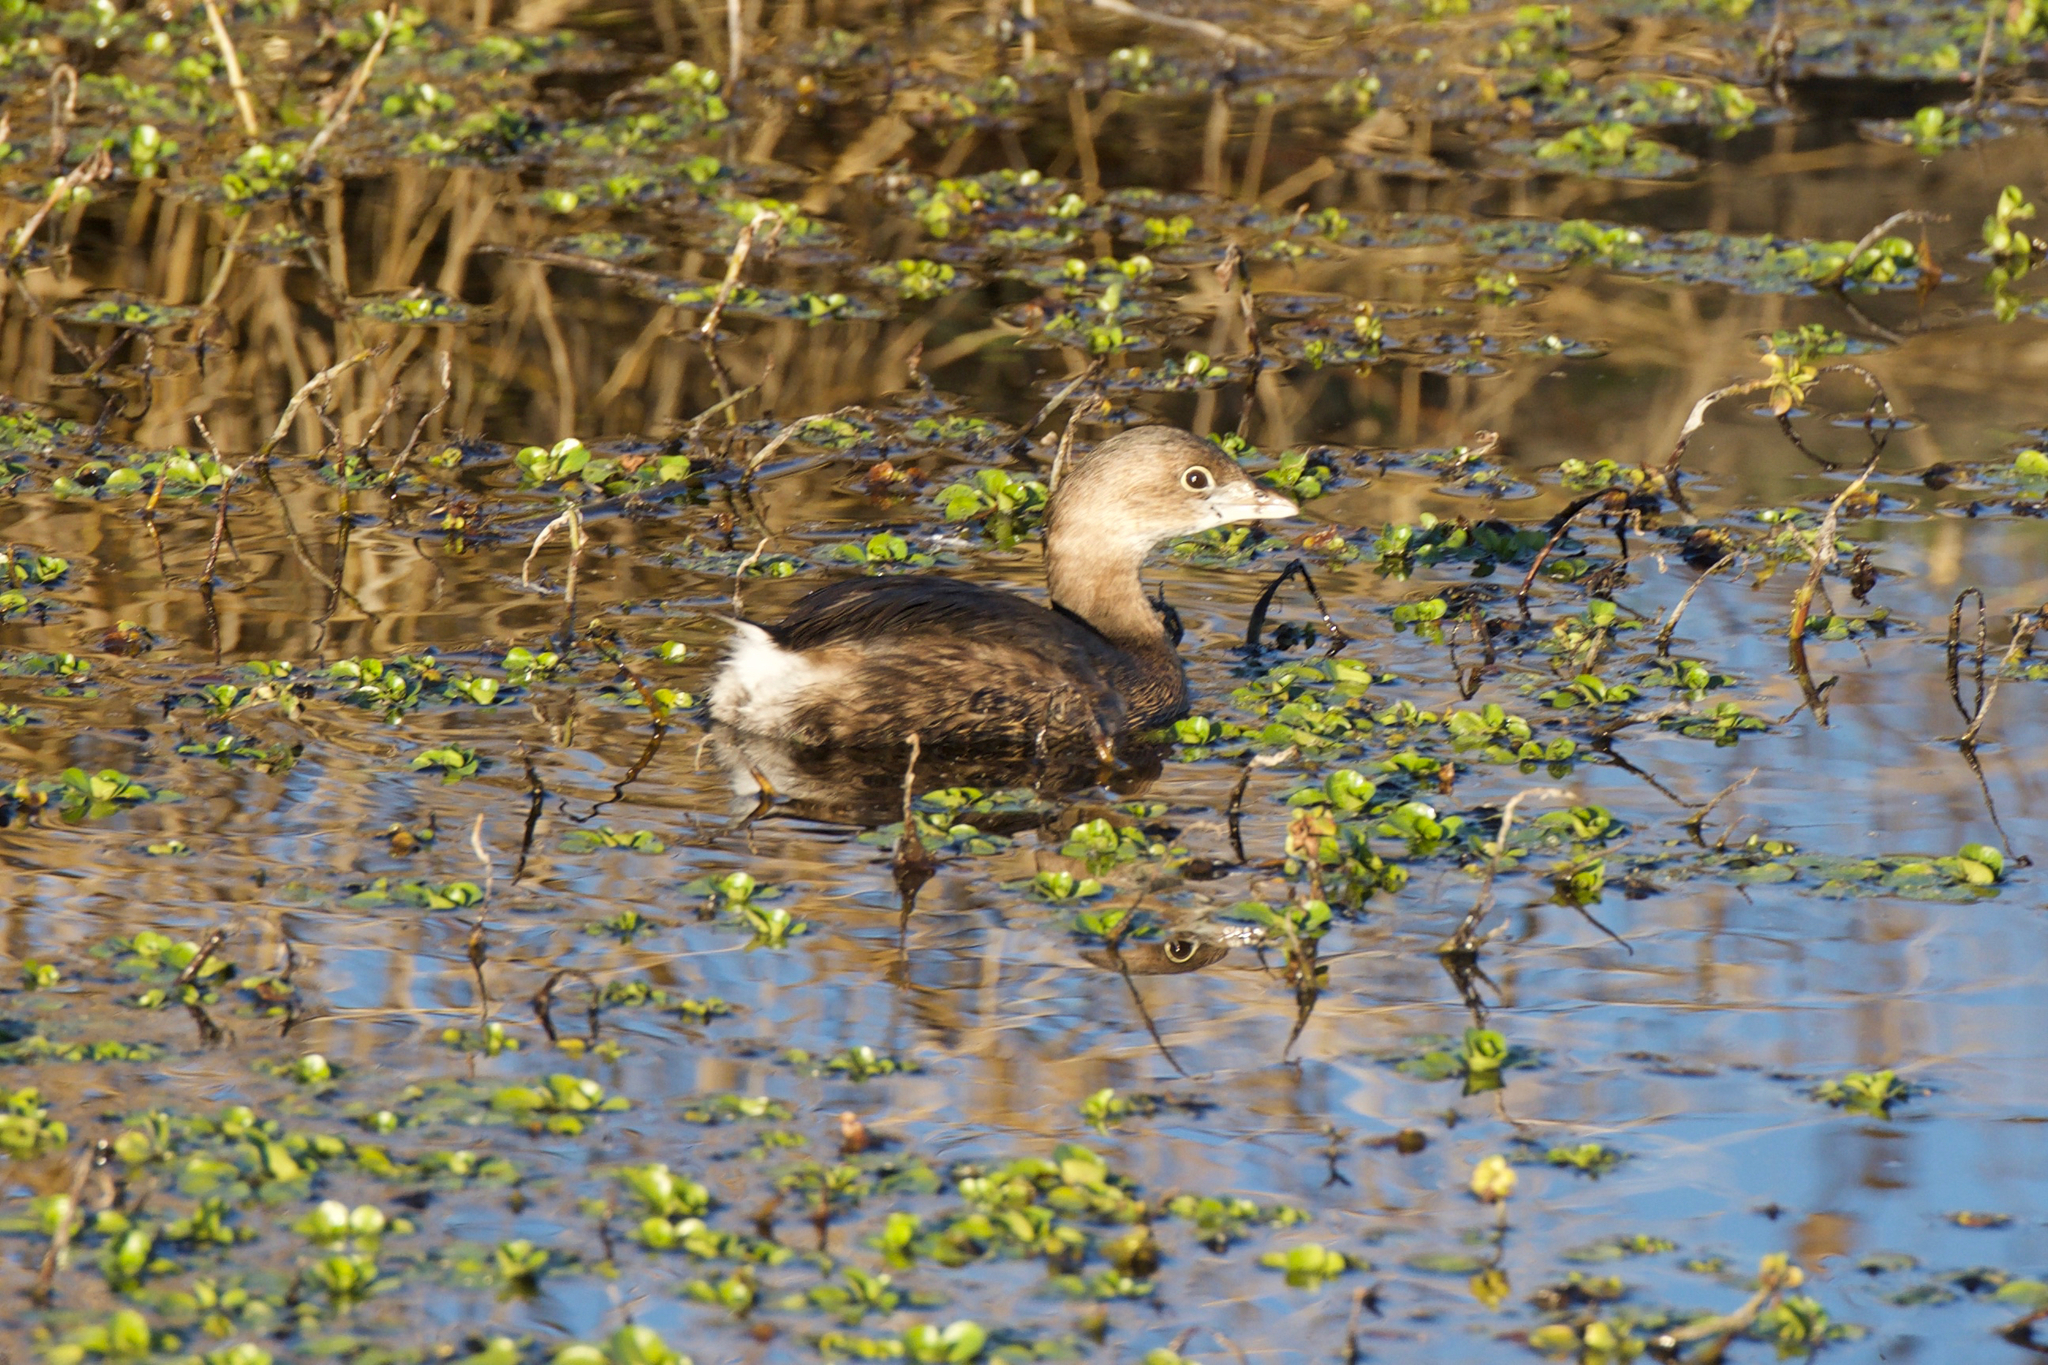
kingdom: Animalia
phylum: Chordata
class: Aves
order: Podicipediformes
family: Podicipedidae
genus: Podilymbus
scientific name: Podilymbus podiceps
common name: Pied-billed grebe
